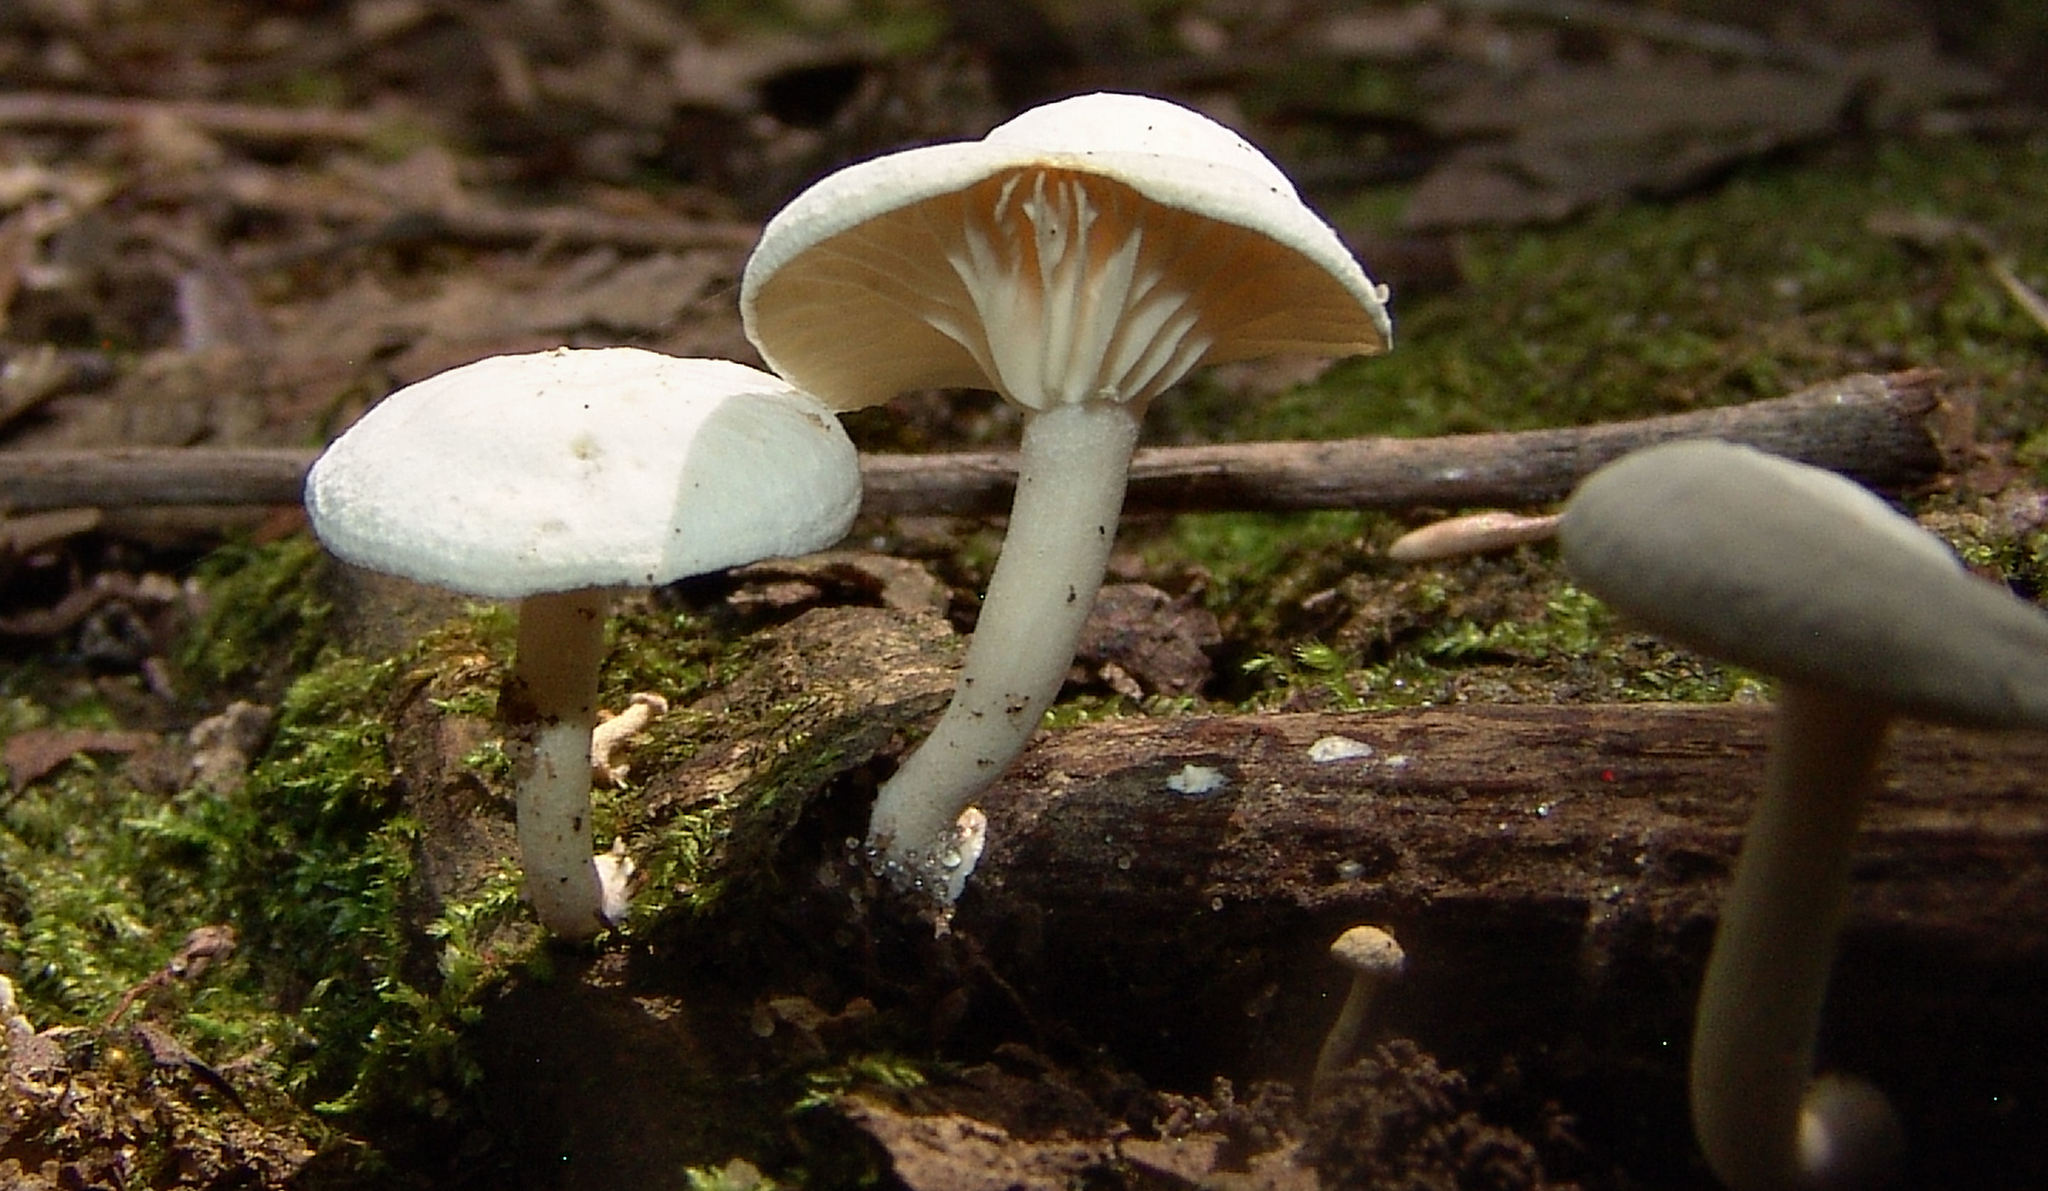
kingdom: Fungi
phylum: Basidiomycota
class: Agaricomycetes
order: Agaricales
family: Tricholomataceae
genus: Clitocybe
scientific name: Clitocybe peralbida
